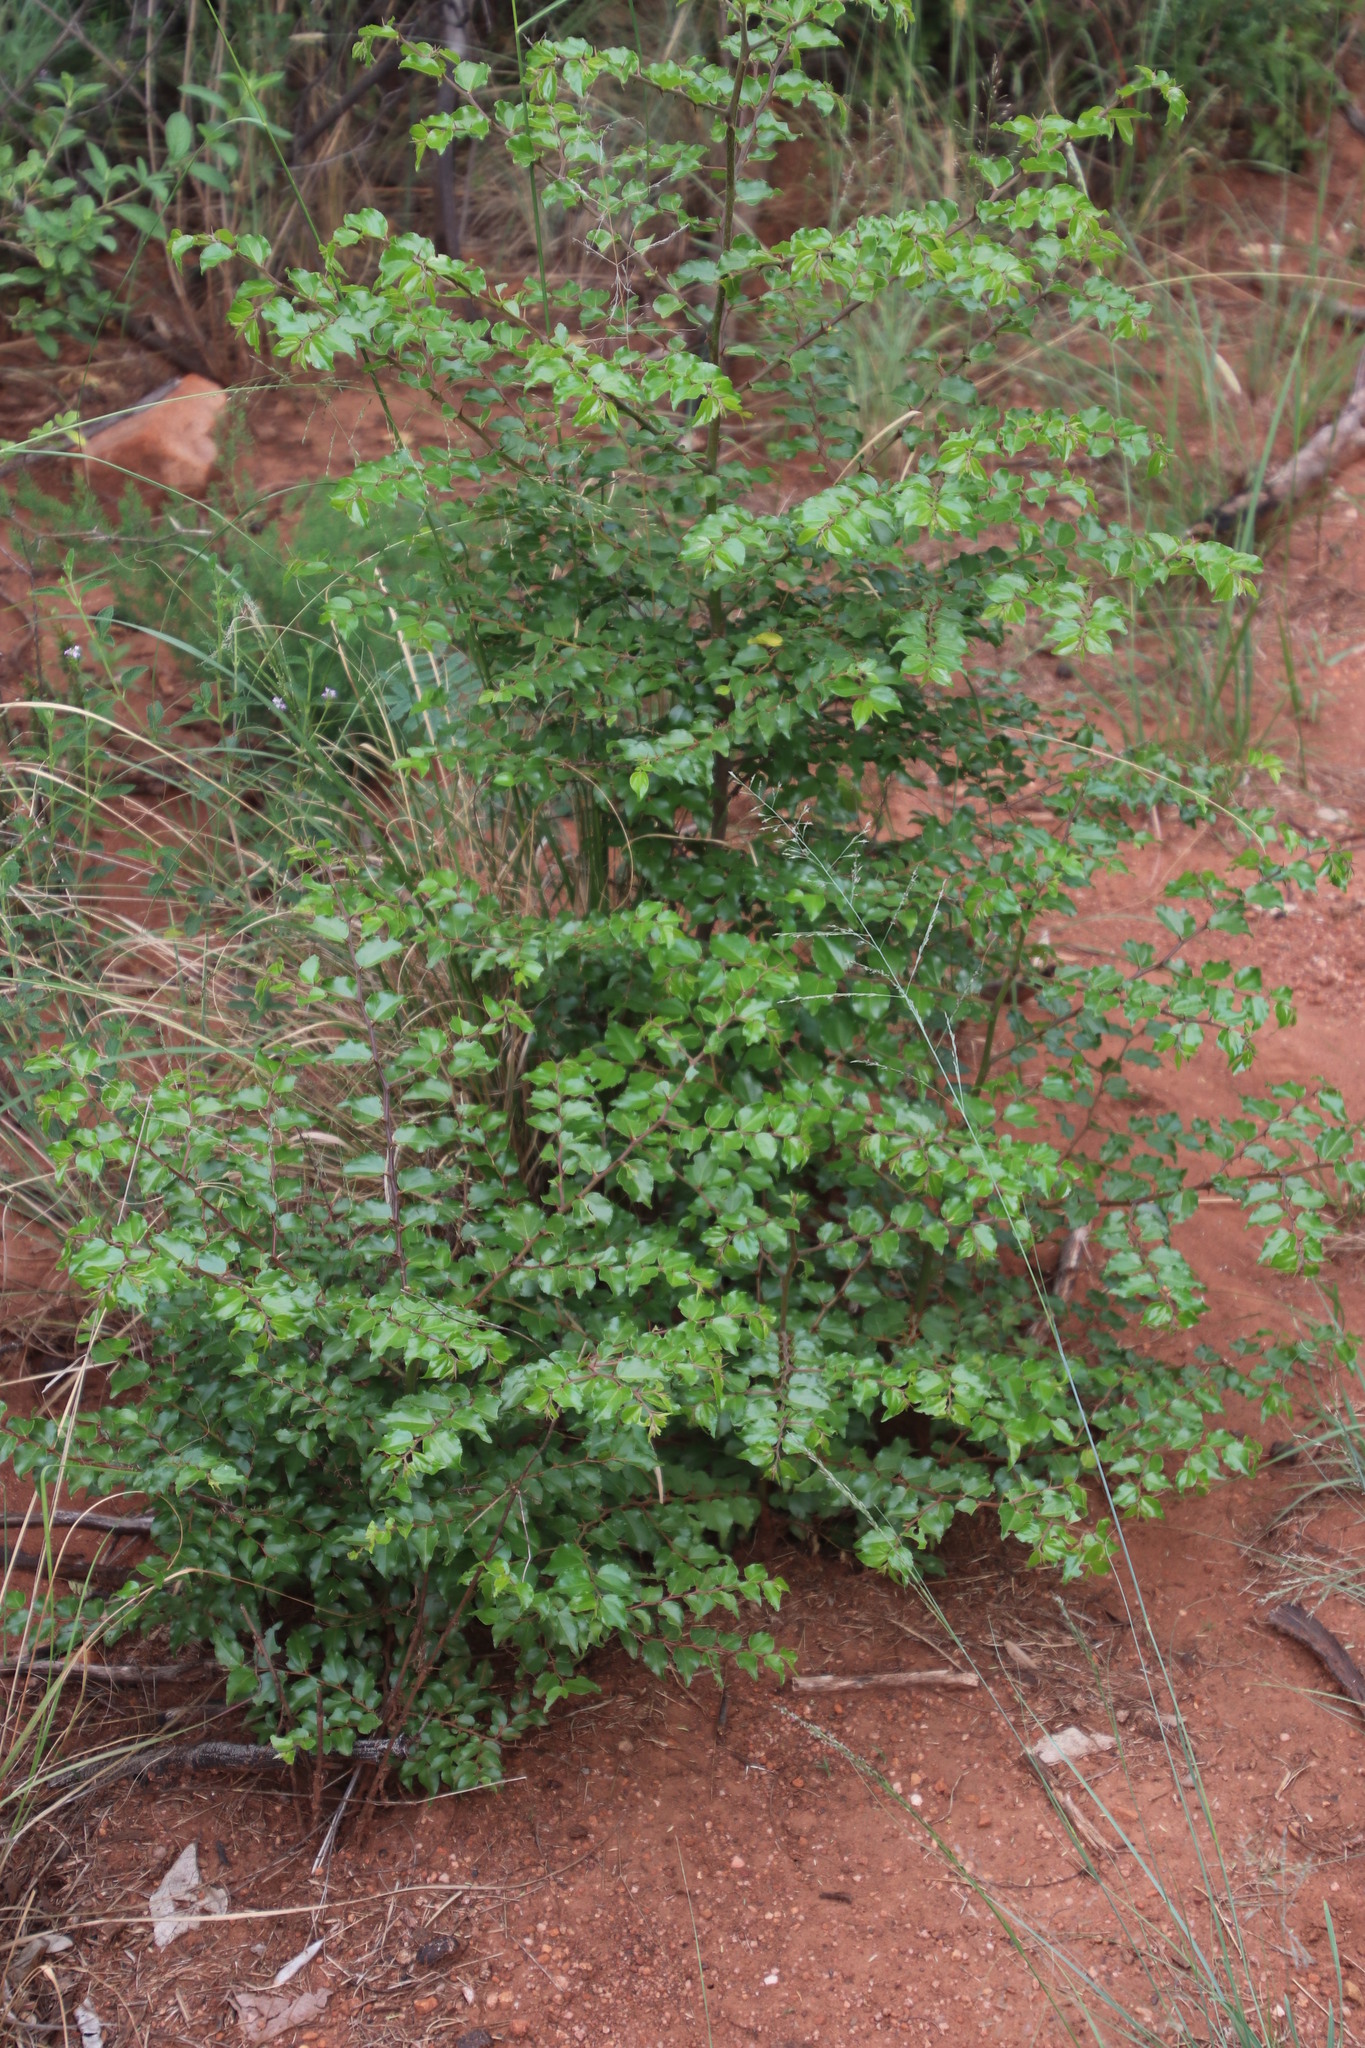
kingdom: Plantae
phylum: Tracheophyta
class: Magnoliopsida
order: Rosales
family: Rhamnaceae
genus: Ziziphus
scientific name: Ziziphus mucronata
